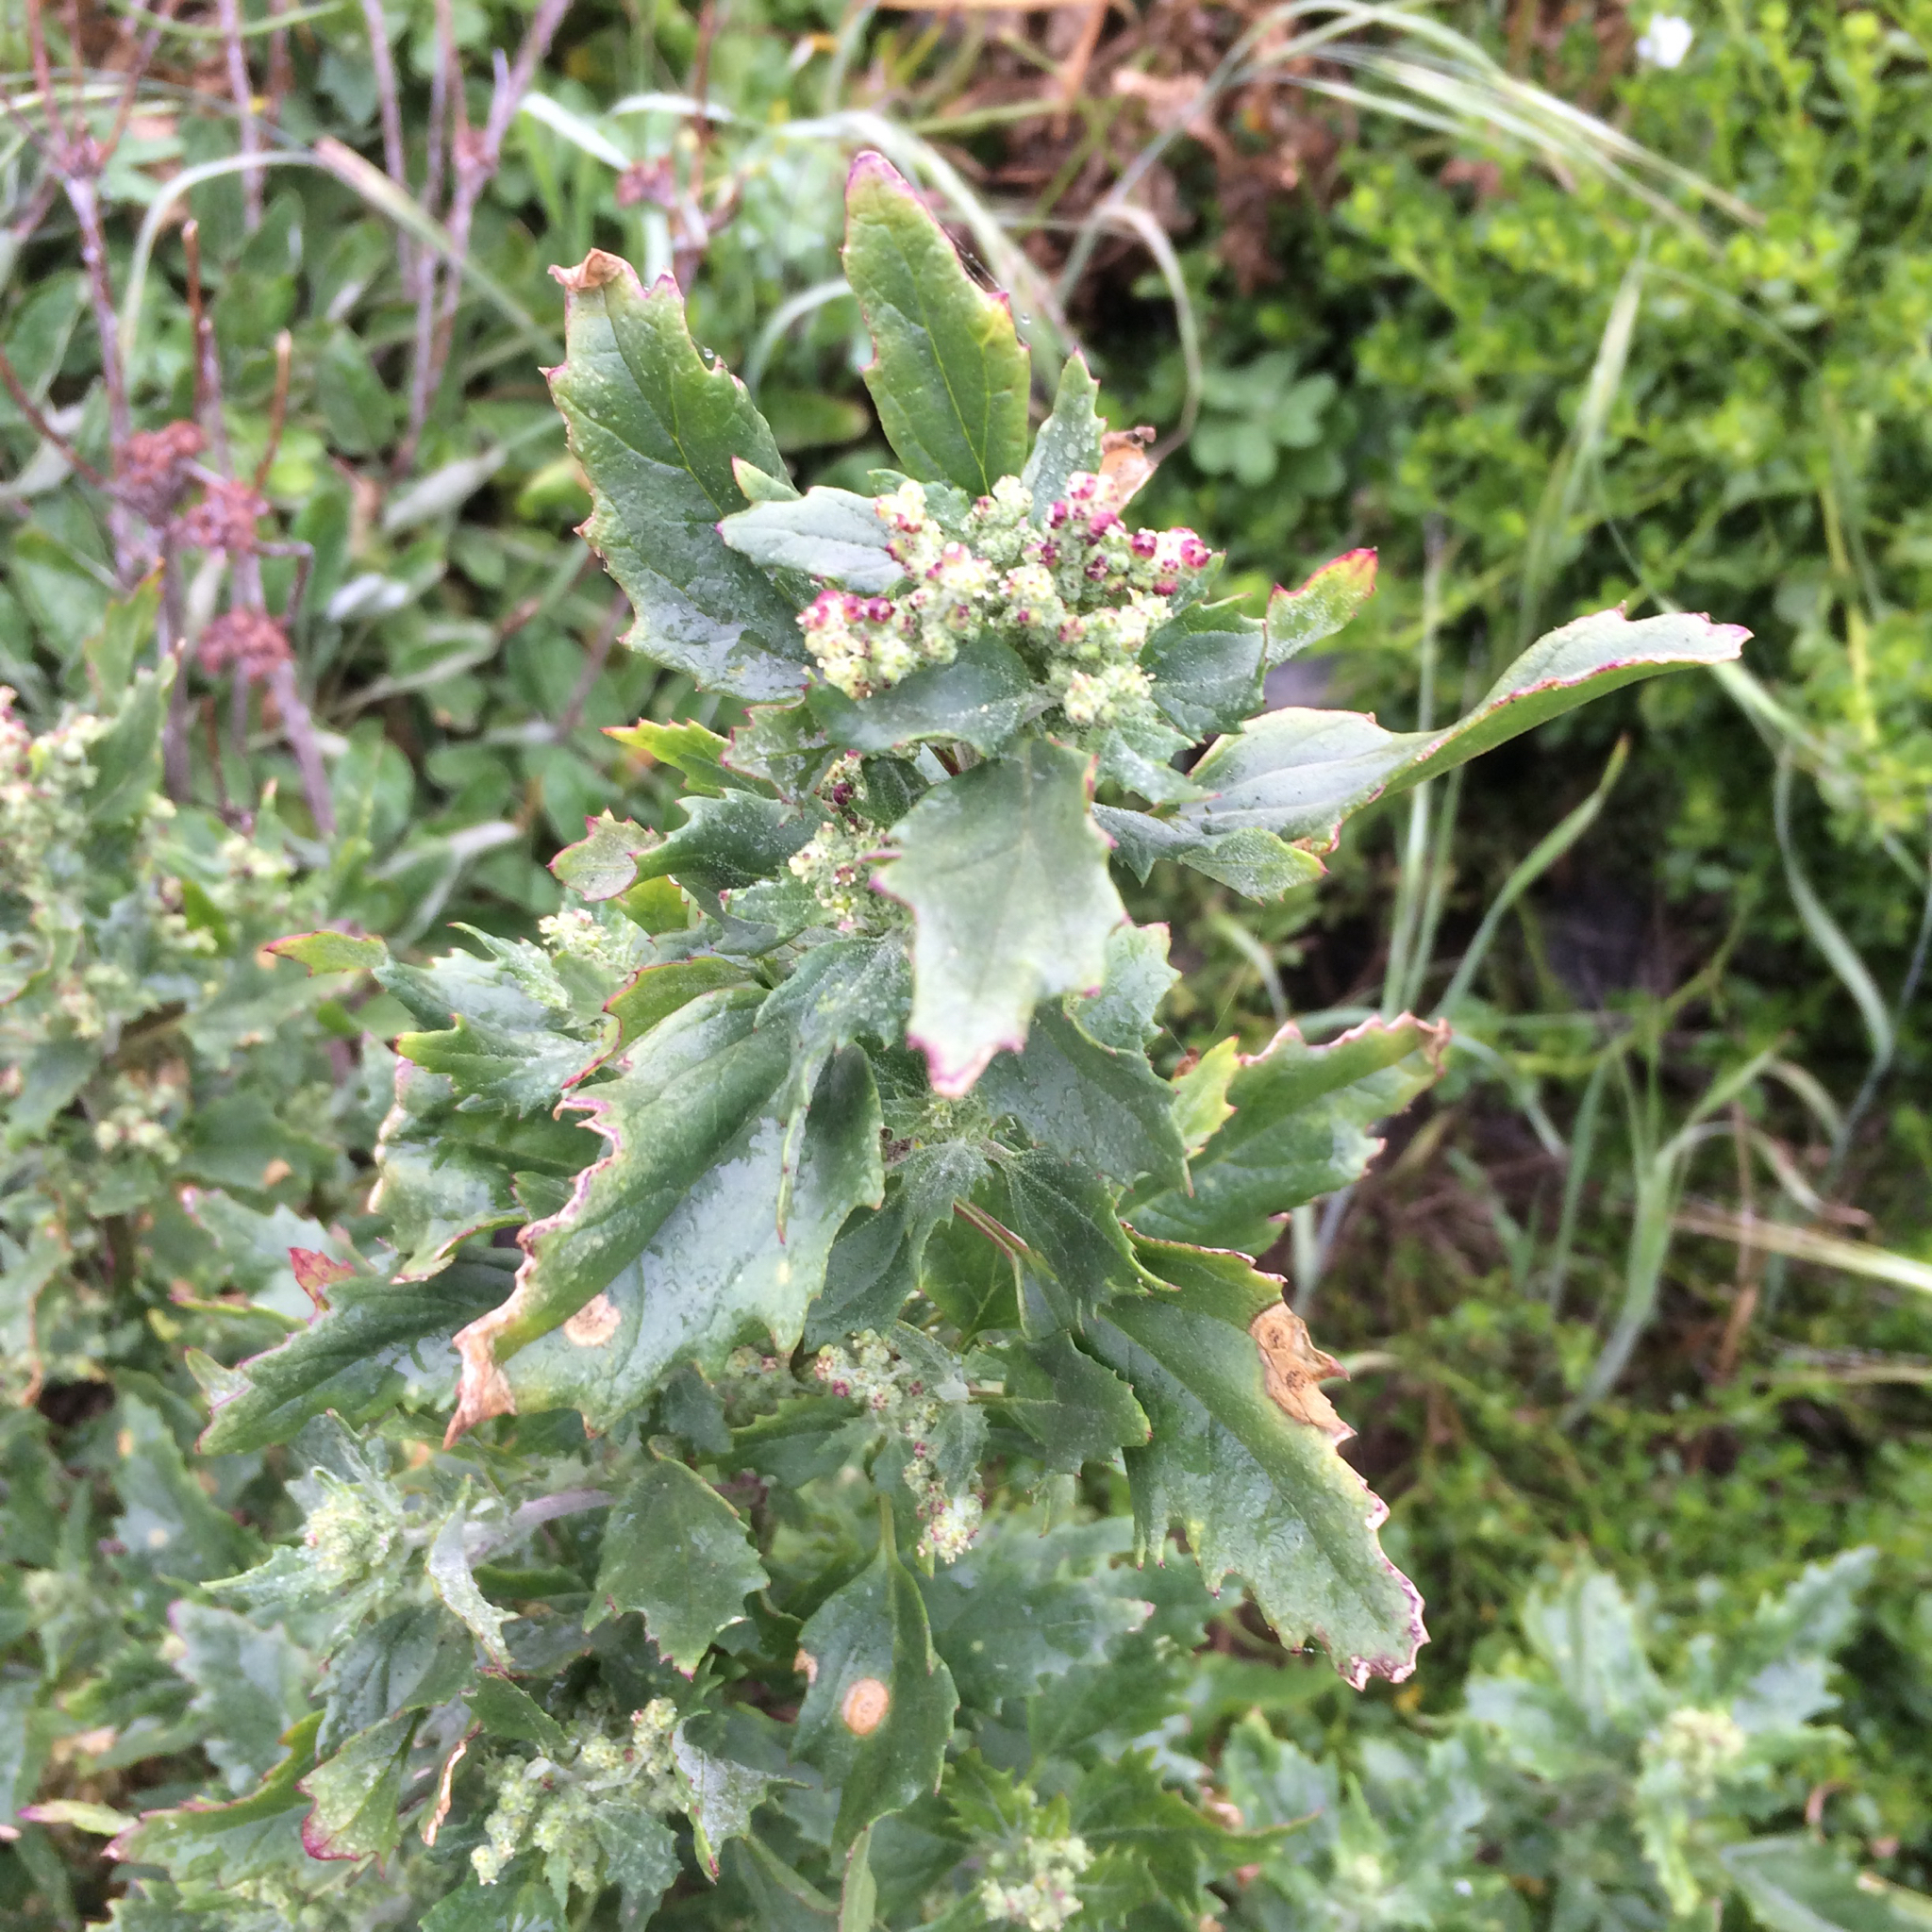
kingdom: Plantae
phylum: Tracheophyta
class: Magnoliopsida
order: Caryophyllales
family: Amaranthaceae
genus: Chenopodiastrum
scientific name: Chenopodiastrum murale
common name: Sowbane
